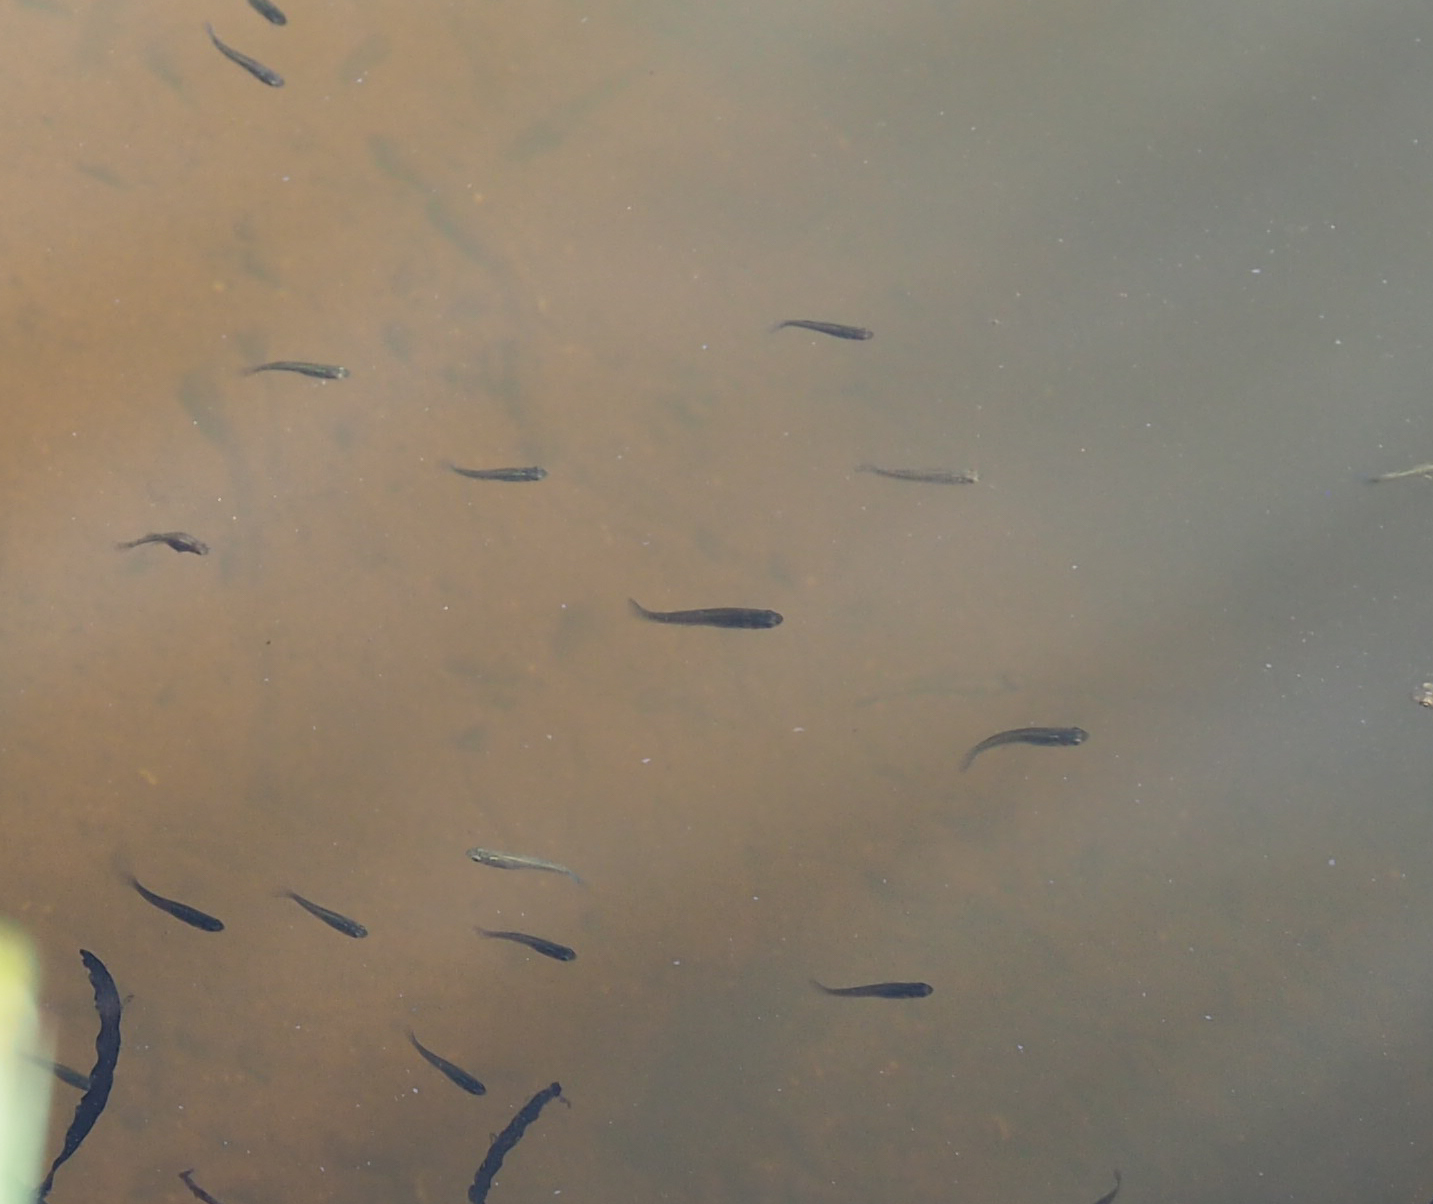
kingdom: Animalia
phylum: Chordata
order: Cyprinodontiformes
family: Poeciliidae
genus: Gambusia
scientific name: Gambusia holbrooki
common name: Eastern mosquitofish
